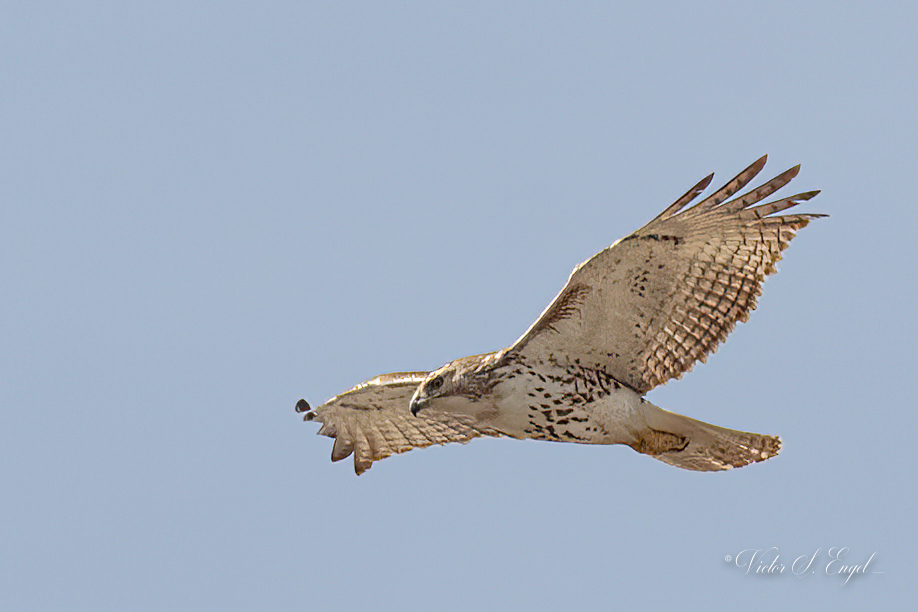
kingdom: Animalia
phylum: Chordata
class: Aves
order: Accipitriformes
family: Accipitridae
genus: Buteo
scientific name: Buteo jamaicensis
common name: Red-tailed hawk
